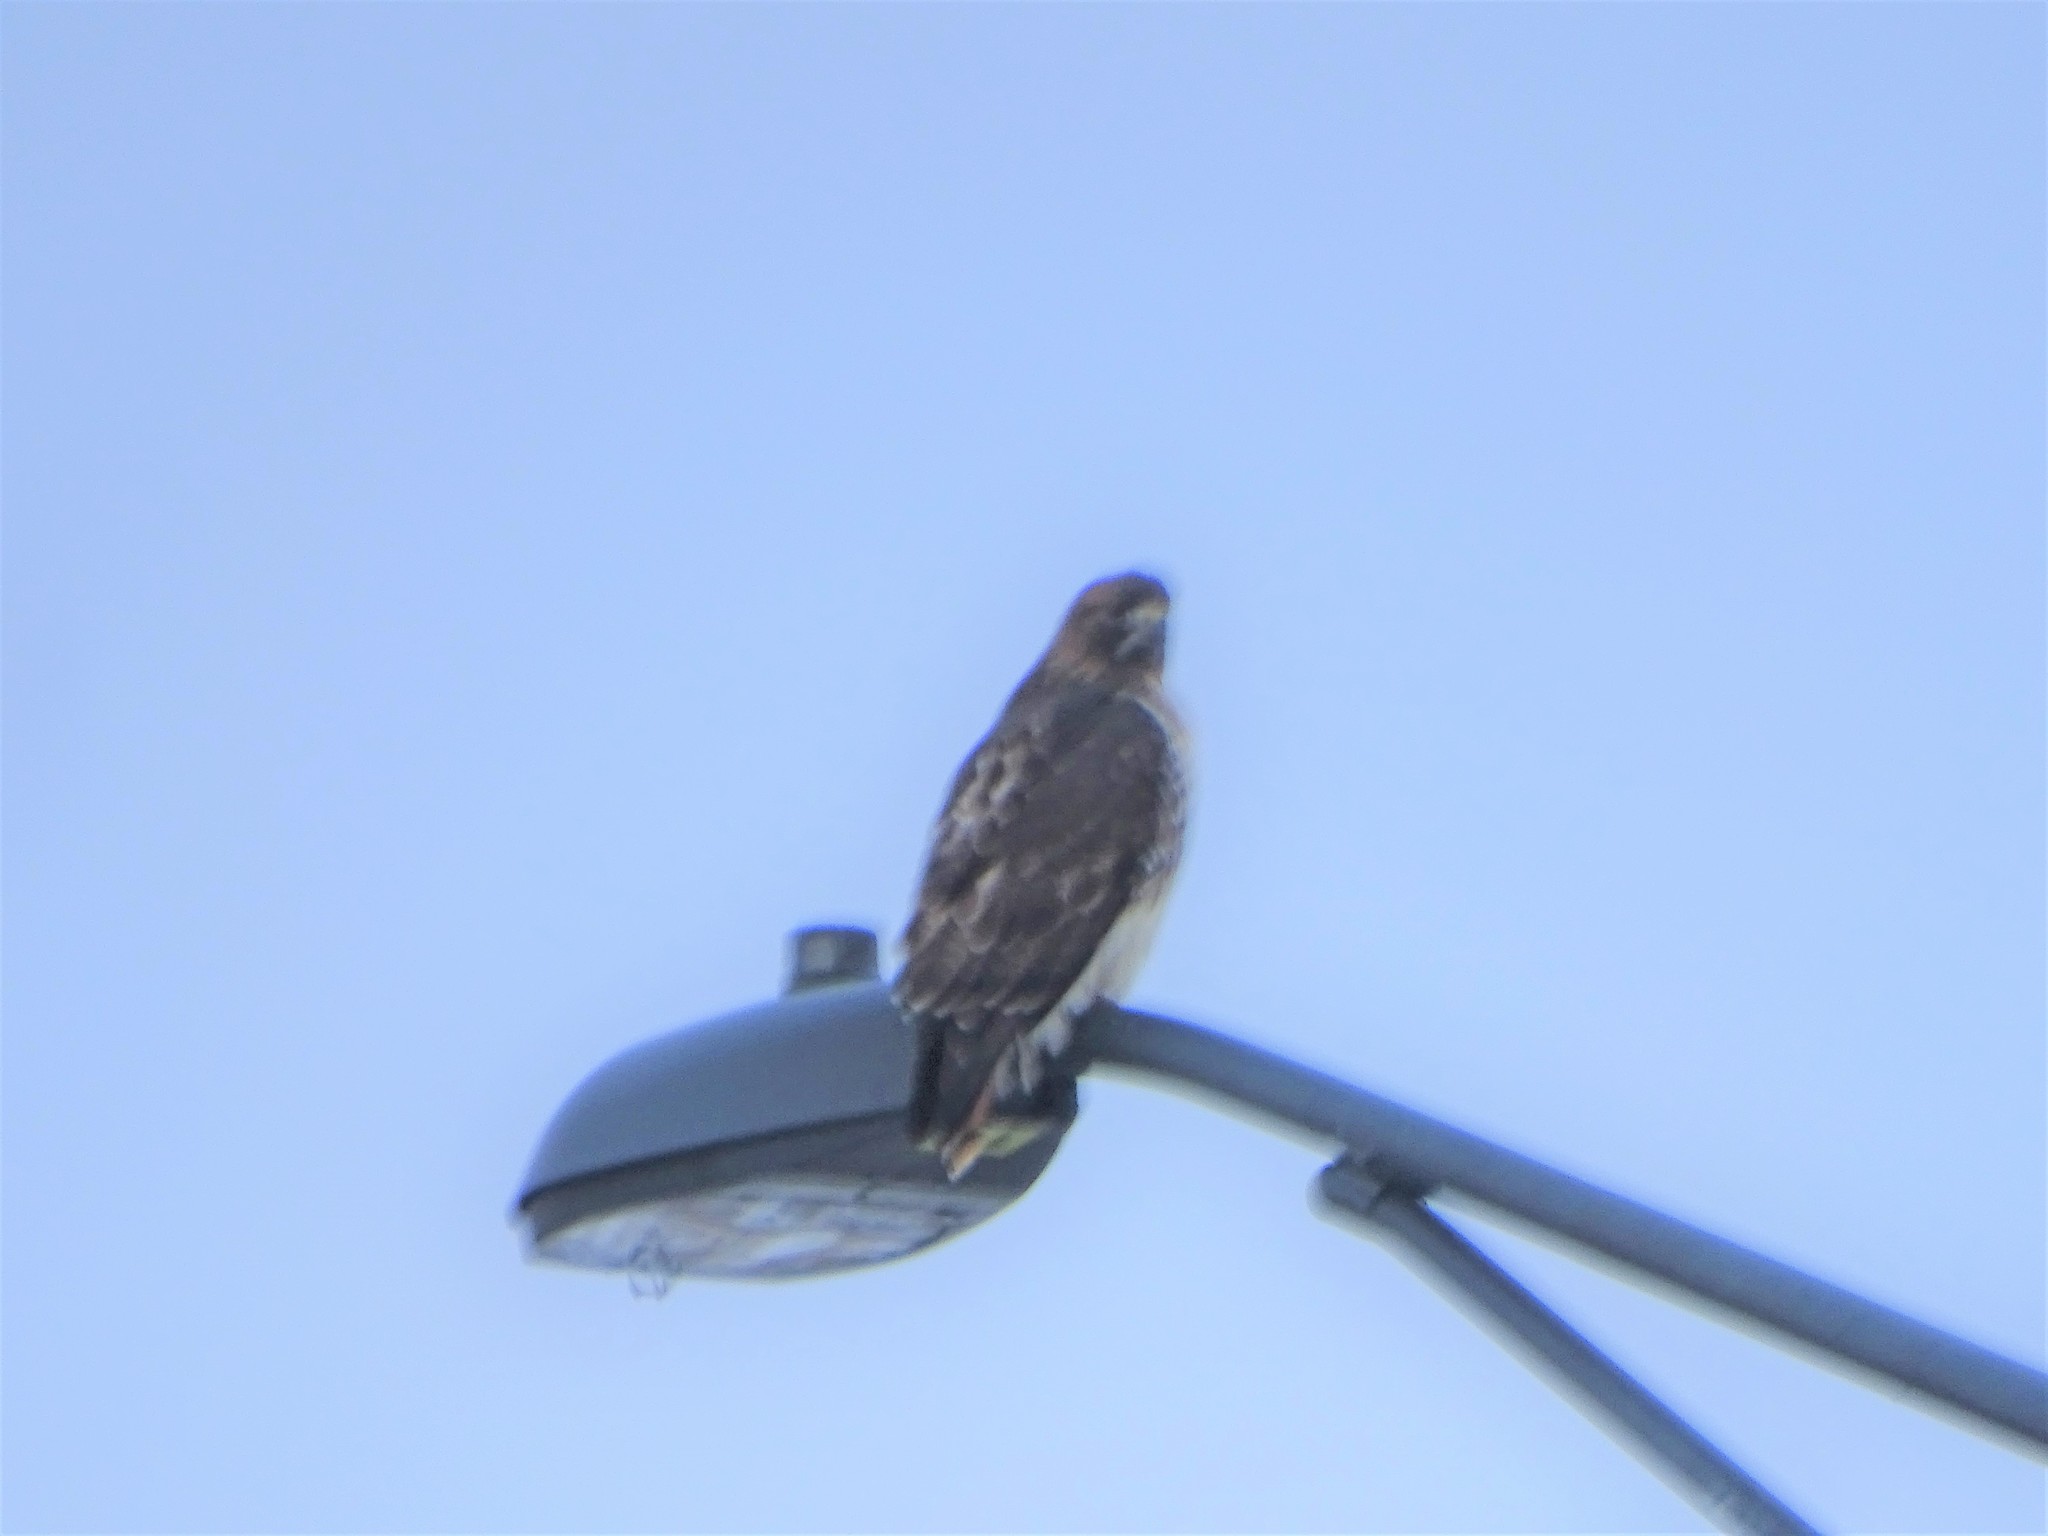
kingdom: Animalia
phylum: Chordata
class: Aves
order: Accipitriformes
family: Accipitridae
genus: Buteo
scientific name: Buteo jamaicensis
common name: Red-tailed hawk
